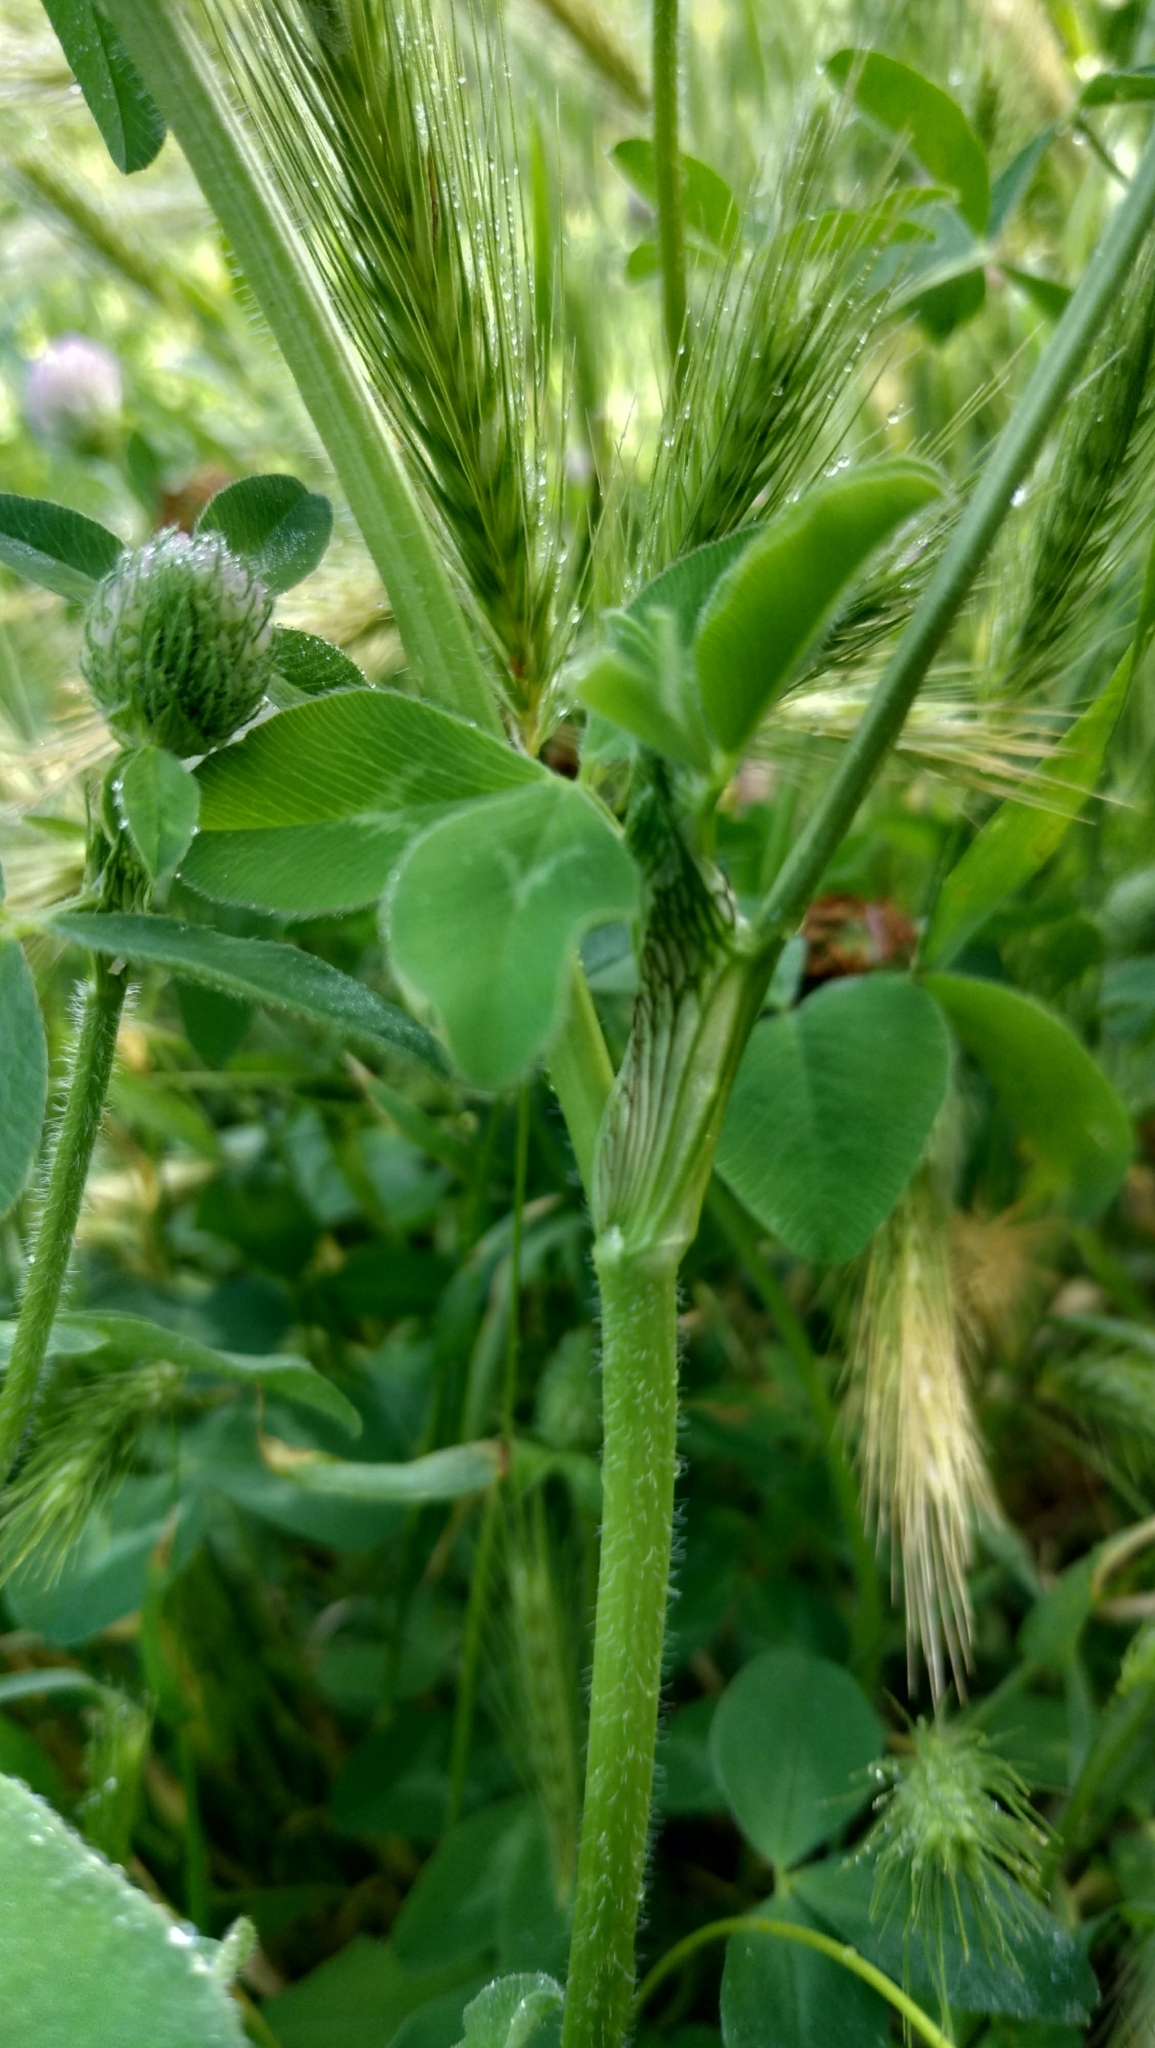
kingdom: Plantae
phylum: Tracheophyta
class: Magnoliopsida
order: Fabales
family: Fabaceae
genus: Trifolium
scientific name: Trifolium pratense
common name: Red clover
